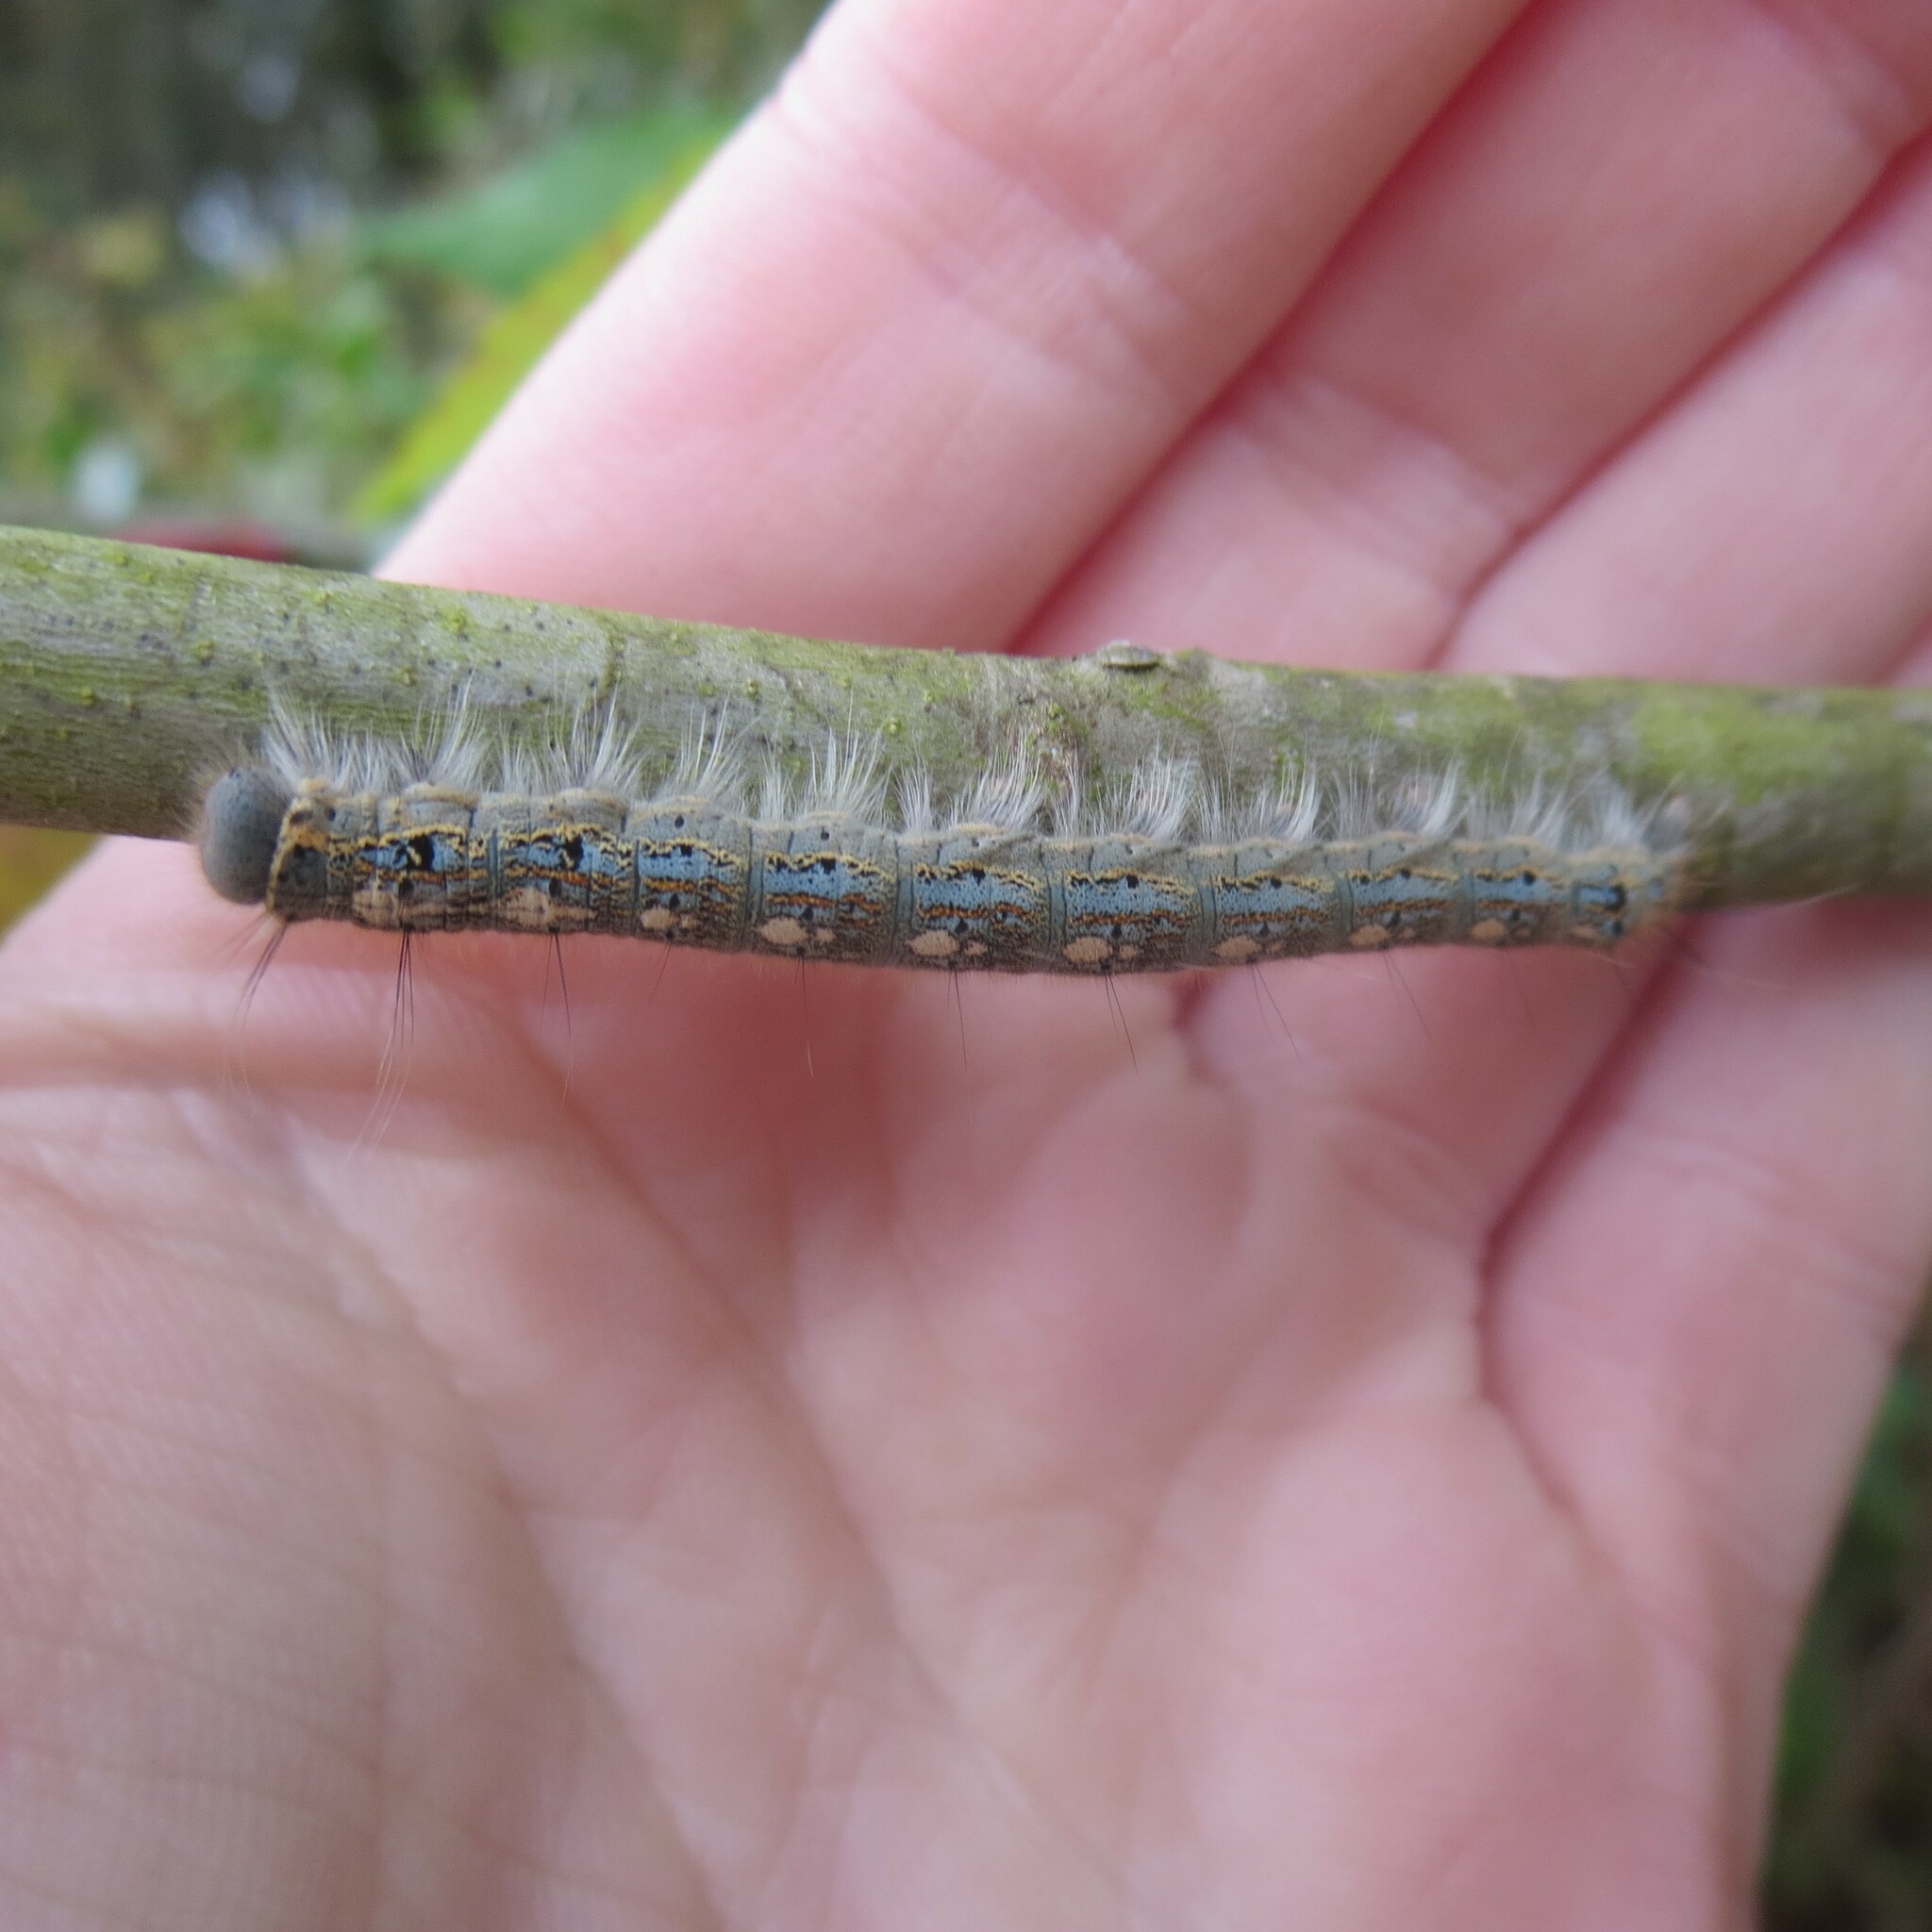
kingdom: Animalia
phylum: Arthropoda
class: Insecta
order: Lepidoptera
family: Lasiocampidae
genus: Malacosoma
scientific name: Malacosoma disstria
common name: Forest tent caterpillar
